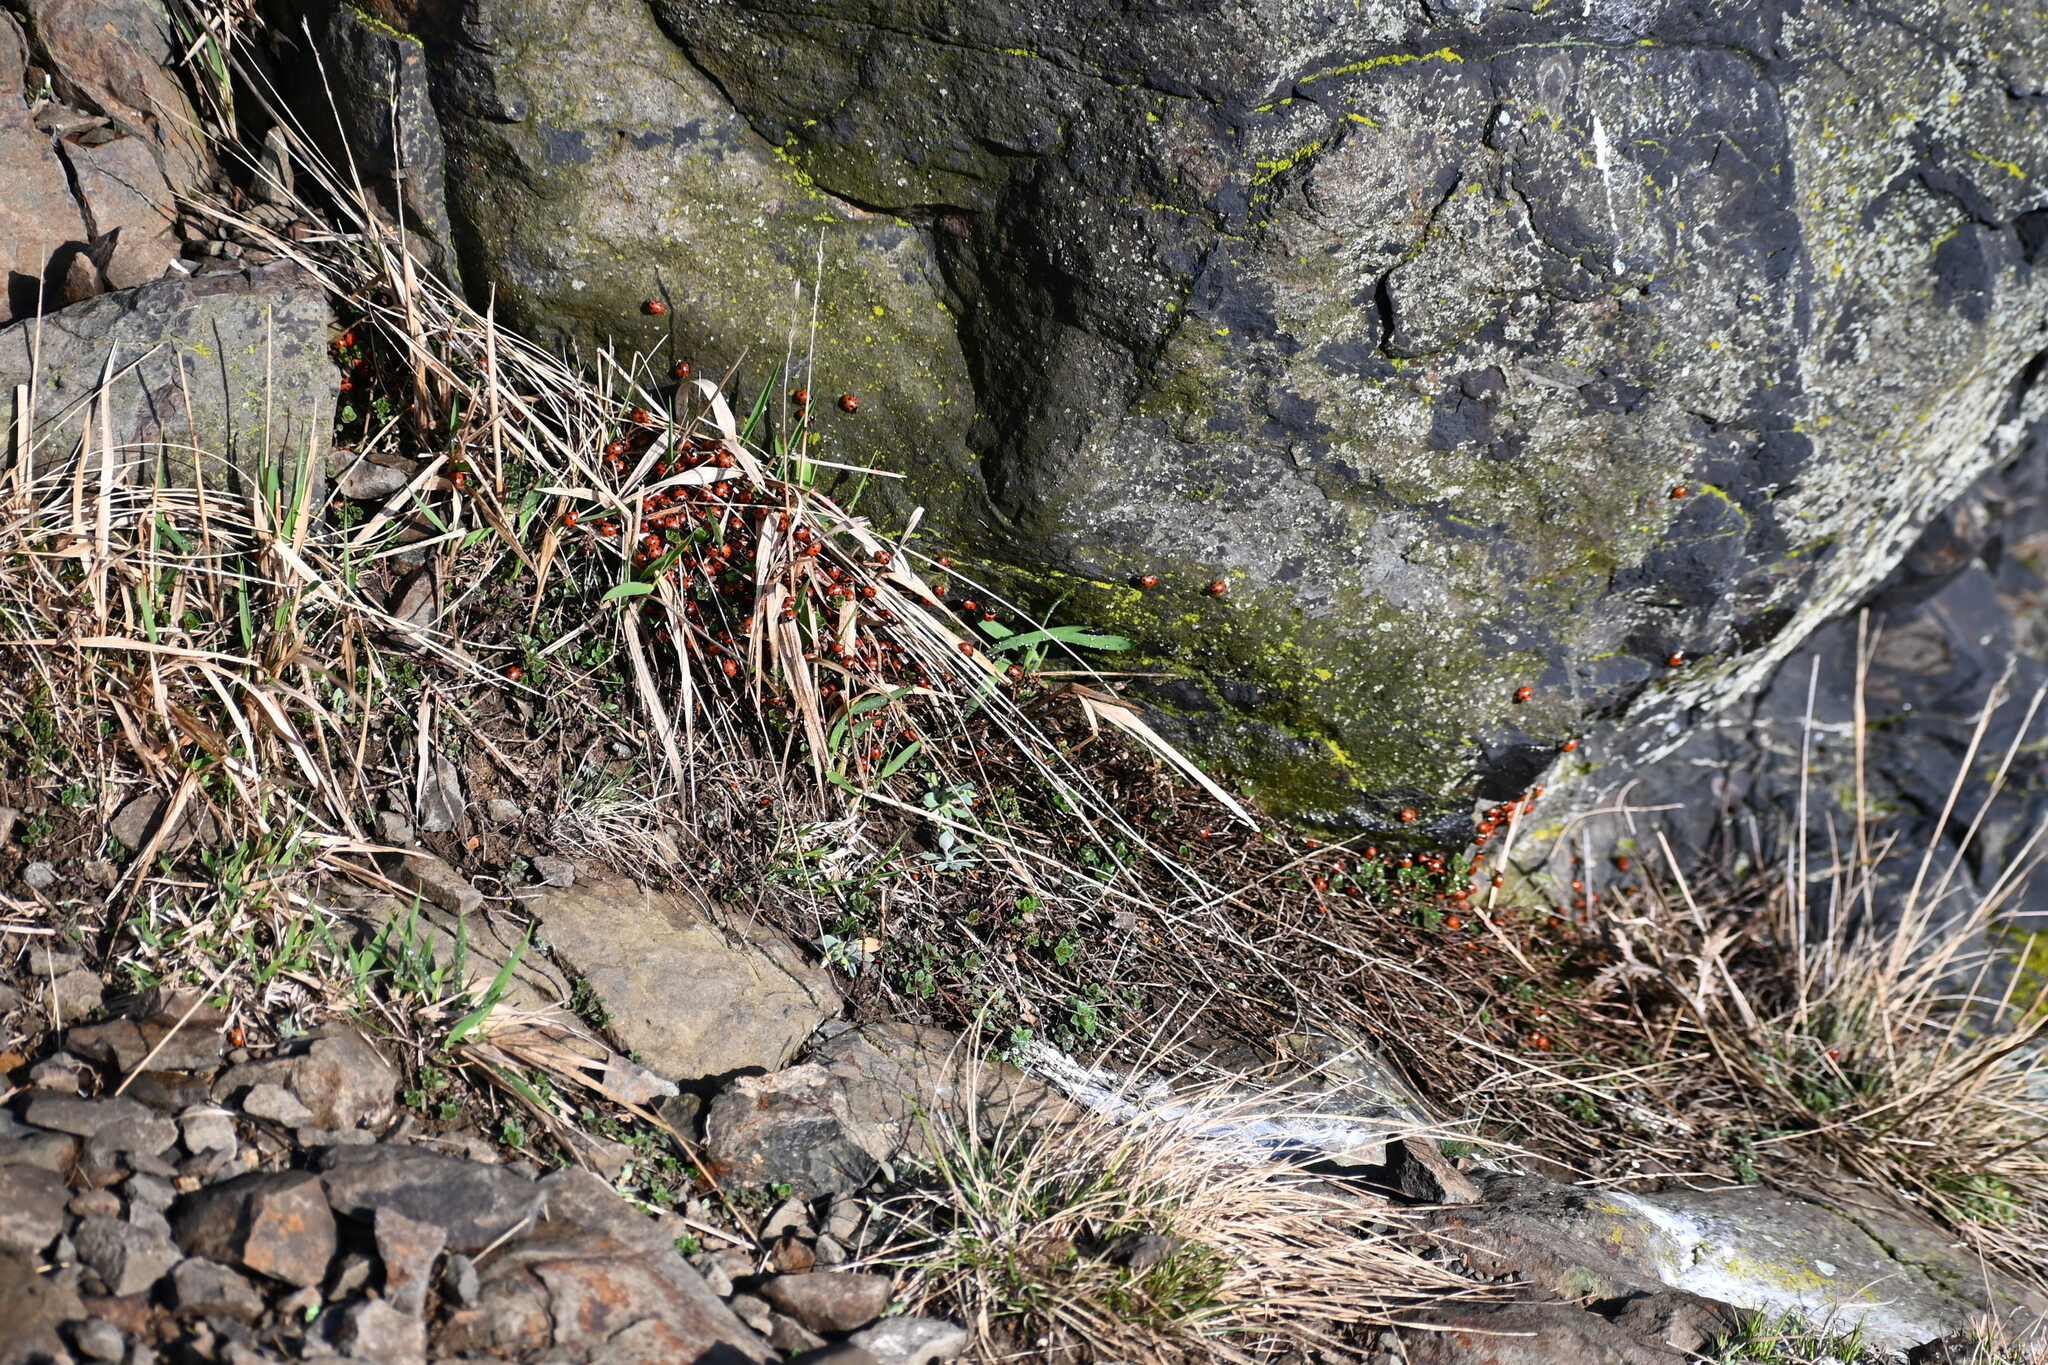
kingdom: Animalia
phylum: Arthropoda
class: Insecta
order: Coleoptera
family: Coccinellidae
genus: Ceratomegilla
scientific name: Ceratomegilla undecimnotata
